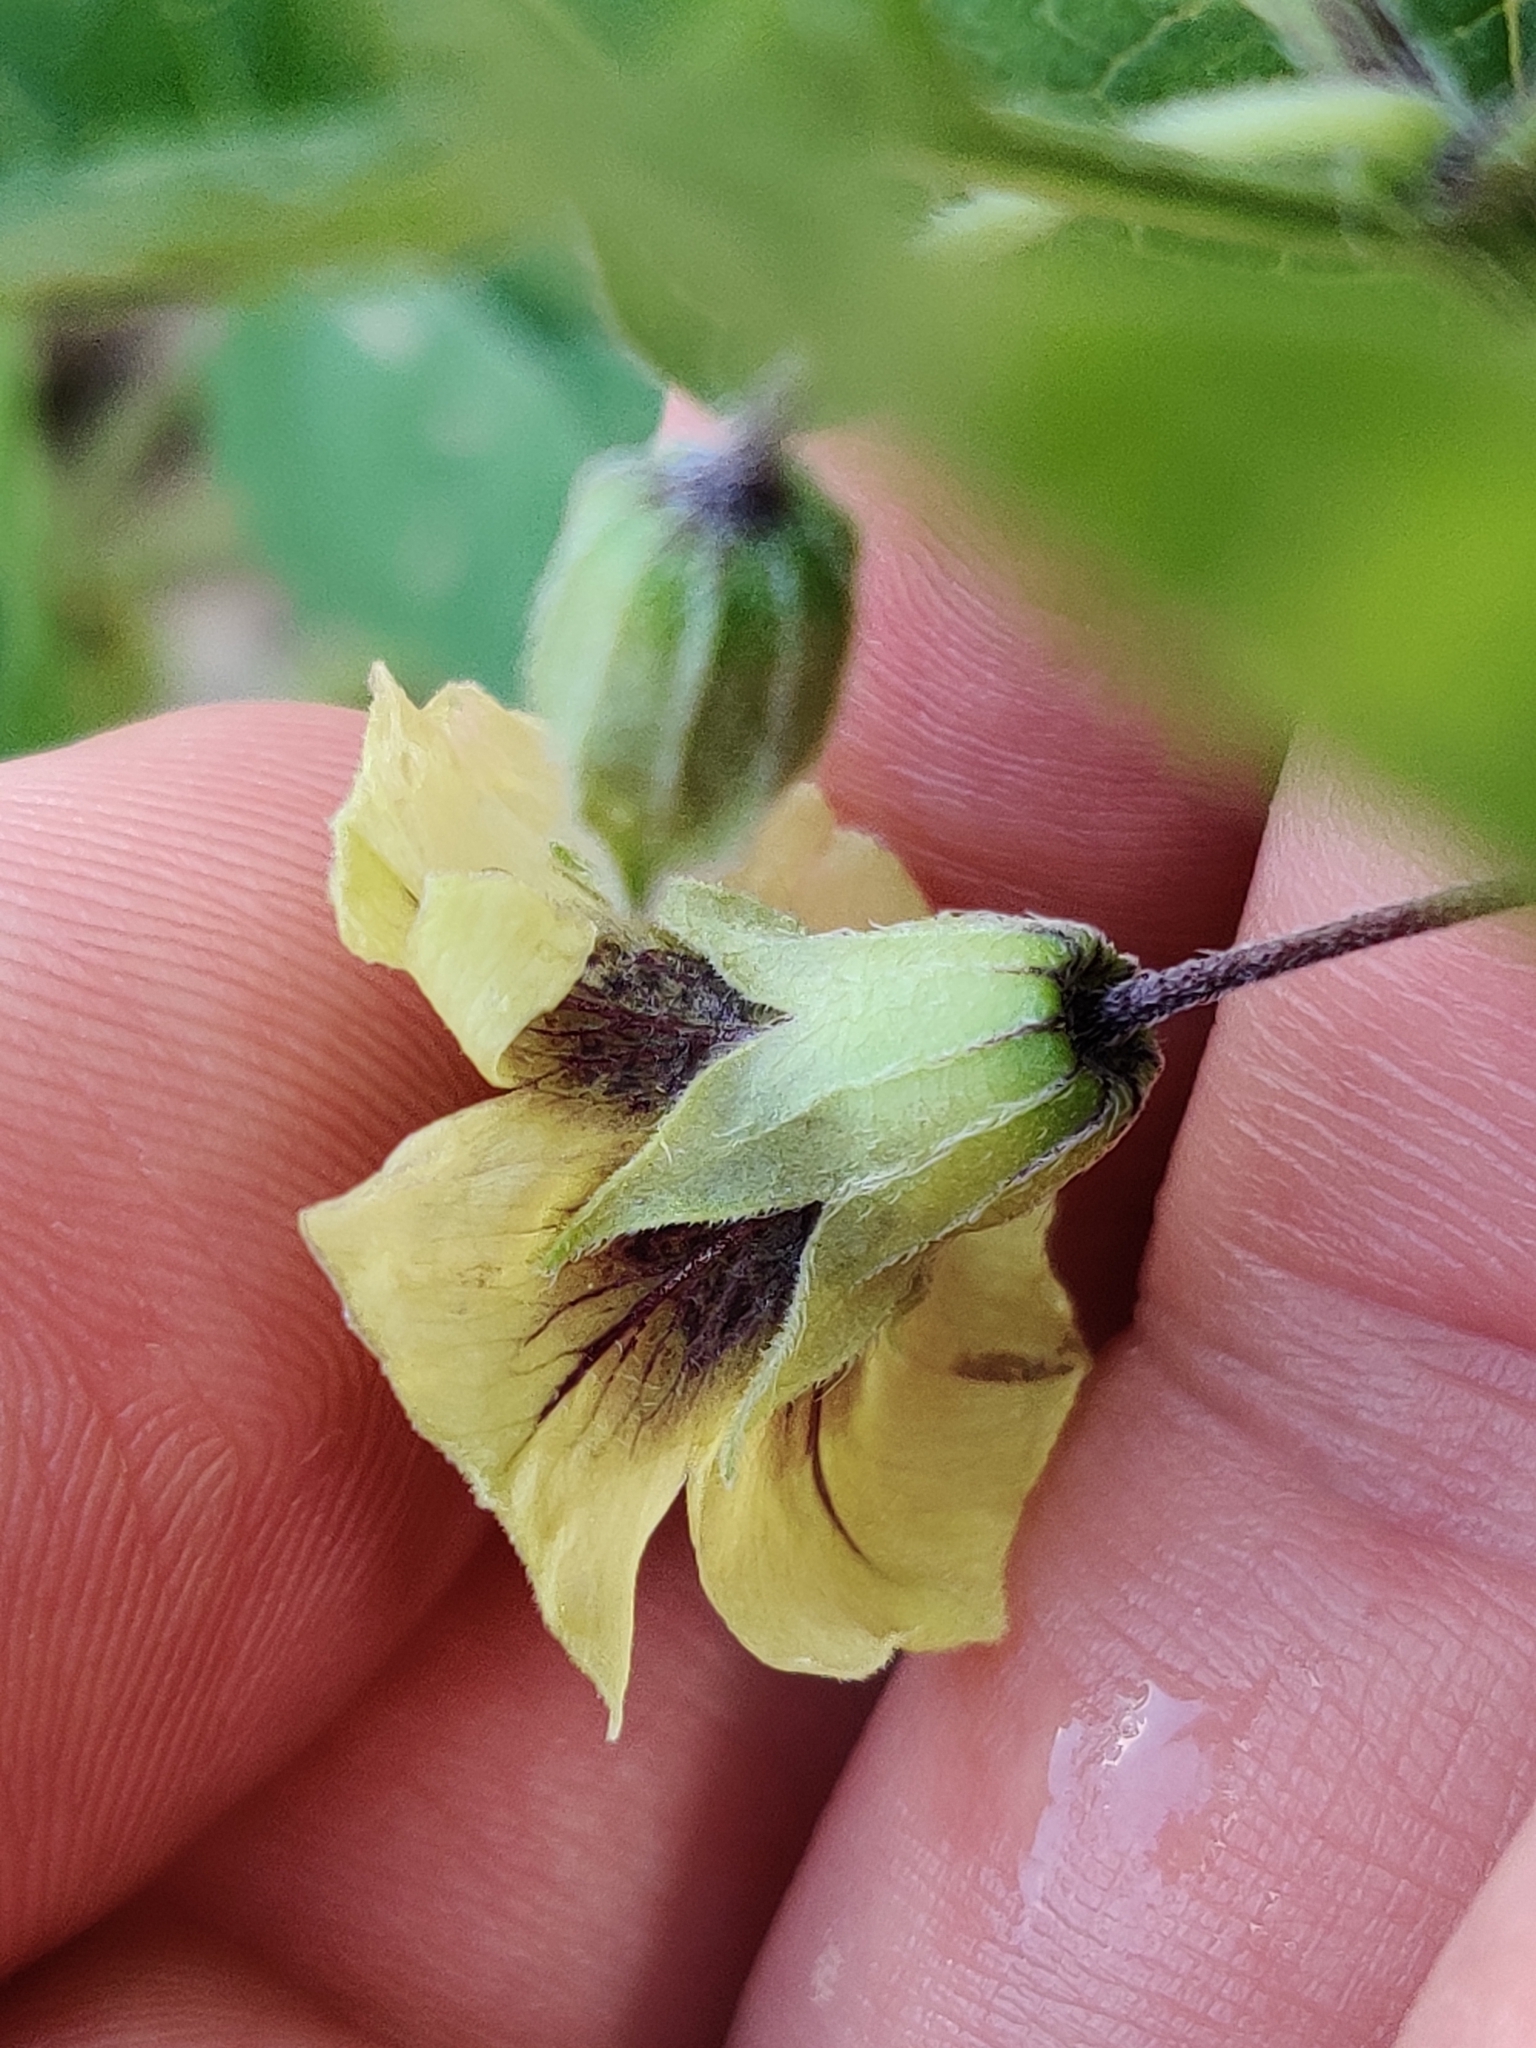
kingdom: Plantae
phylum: Tracheophyta
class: Magnoliopsida
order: Solanales
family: Solanaceae
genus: Physalis
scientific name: Physalis longifolia
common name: Common ground-cherry
